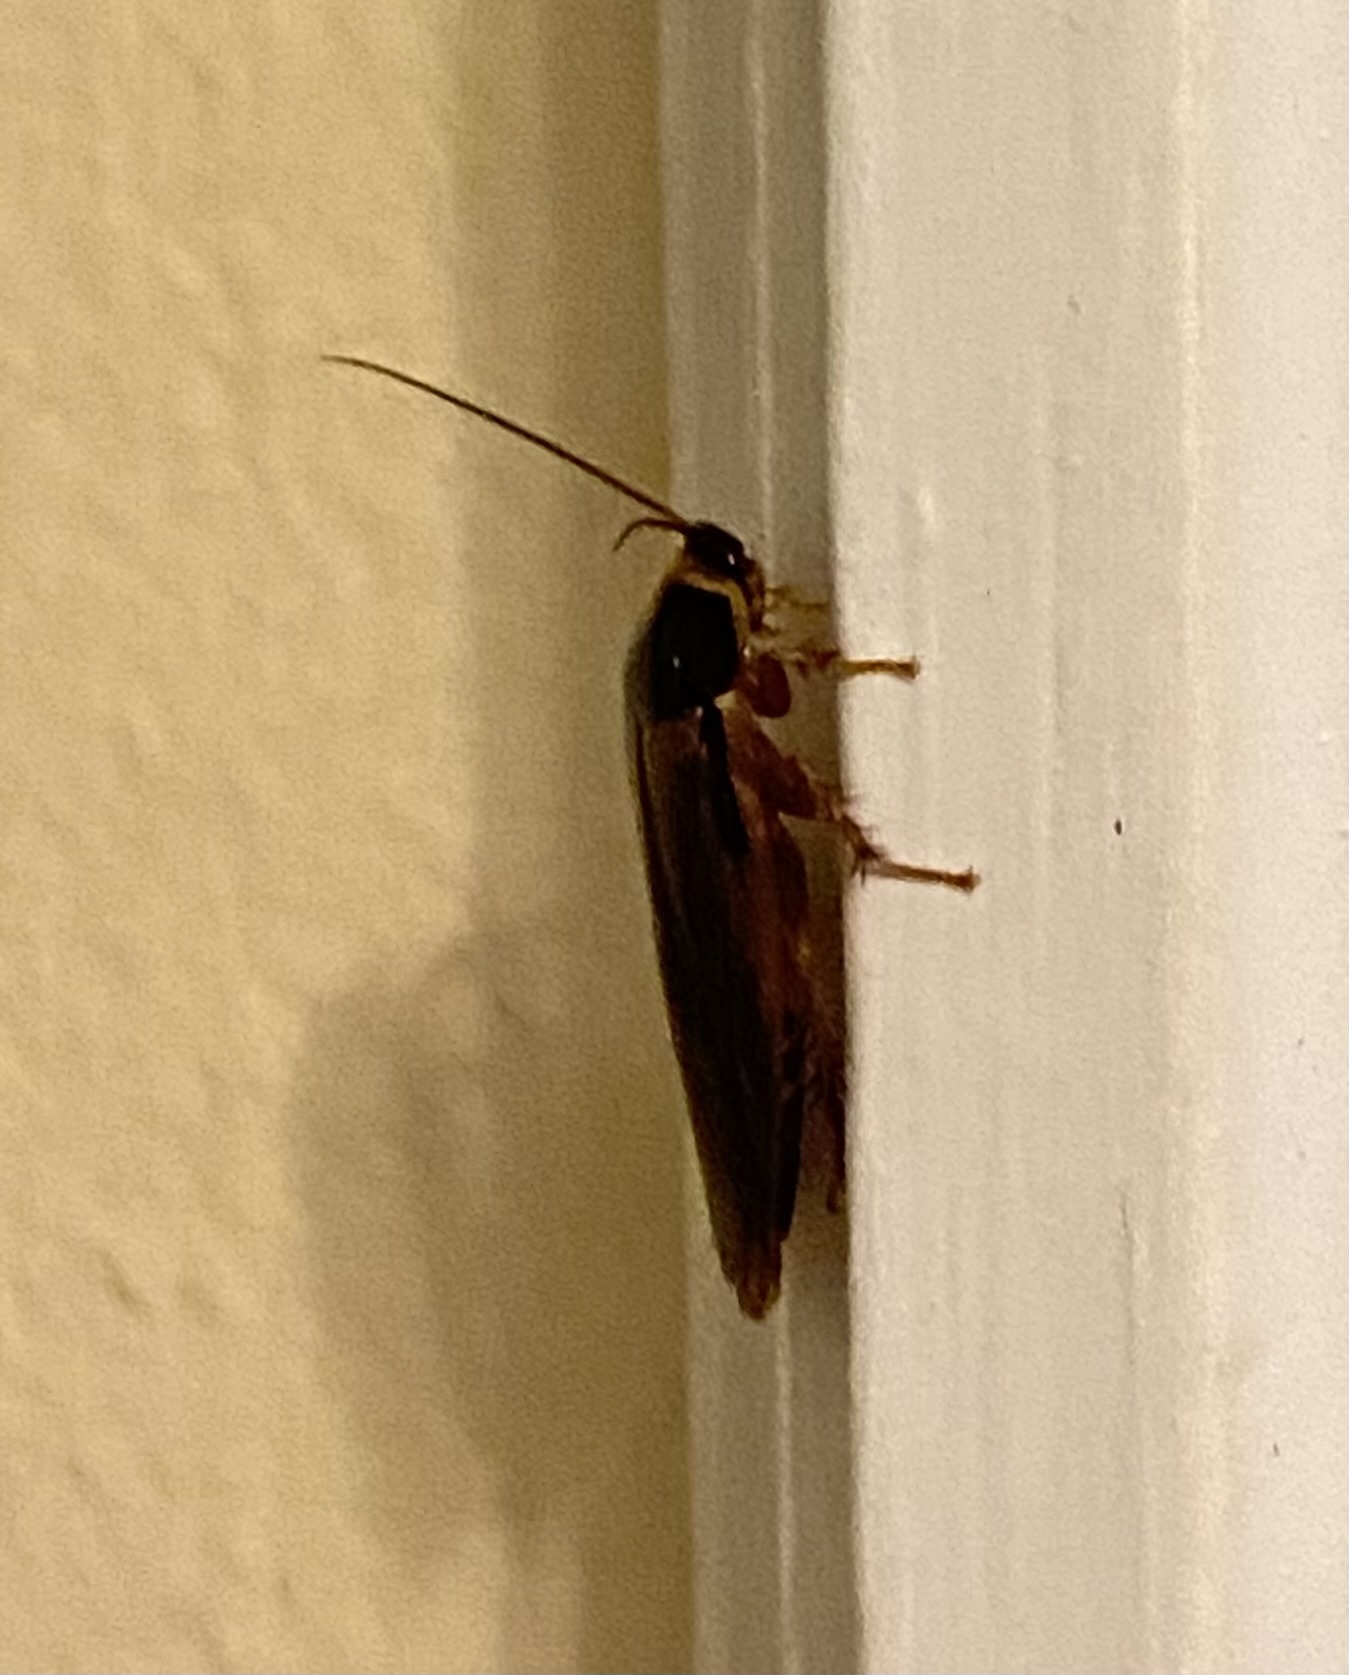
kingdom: Animalia
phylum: Arthropoda
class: Insecta
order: Blattodea
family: Blaberidae
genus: Pycnoscelus
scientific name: Pycnoscelus indicus
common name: Burrowing cockroach
